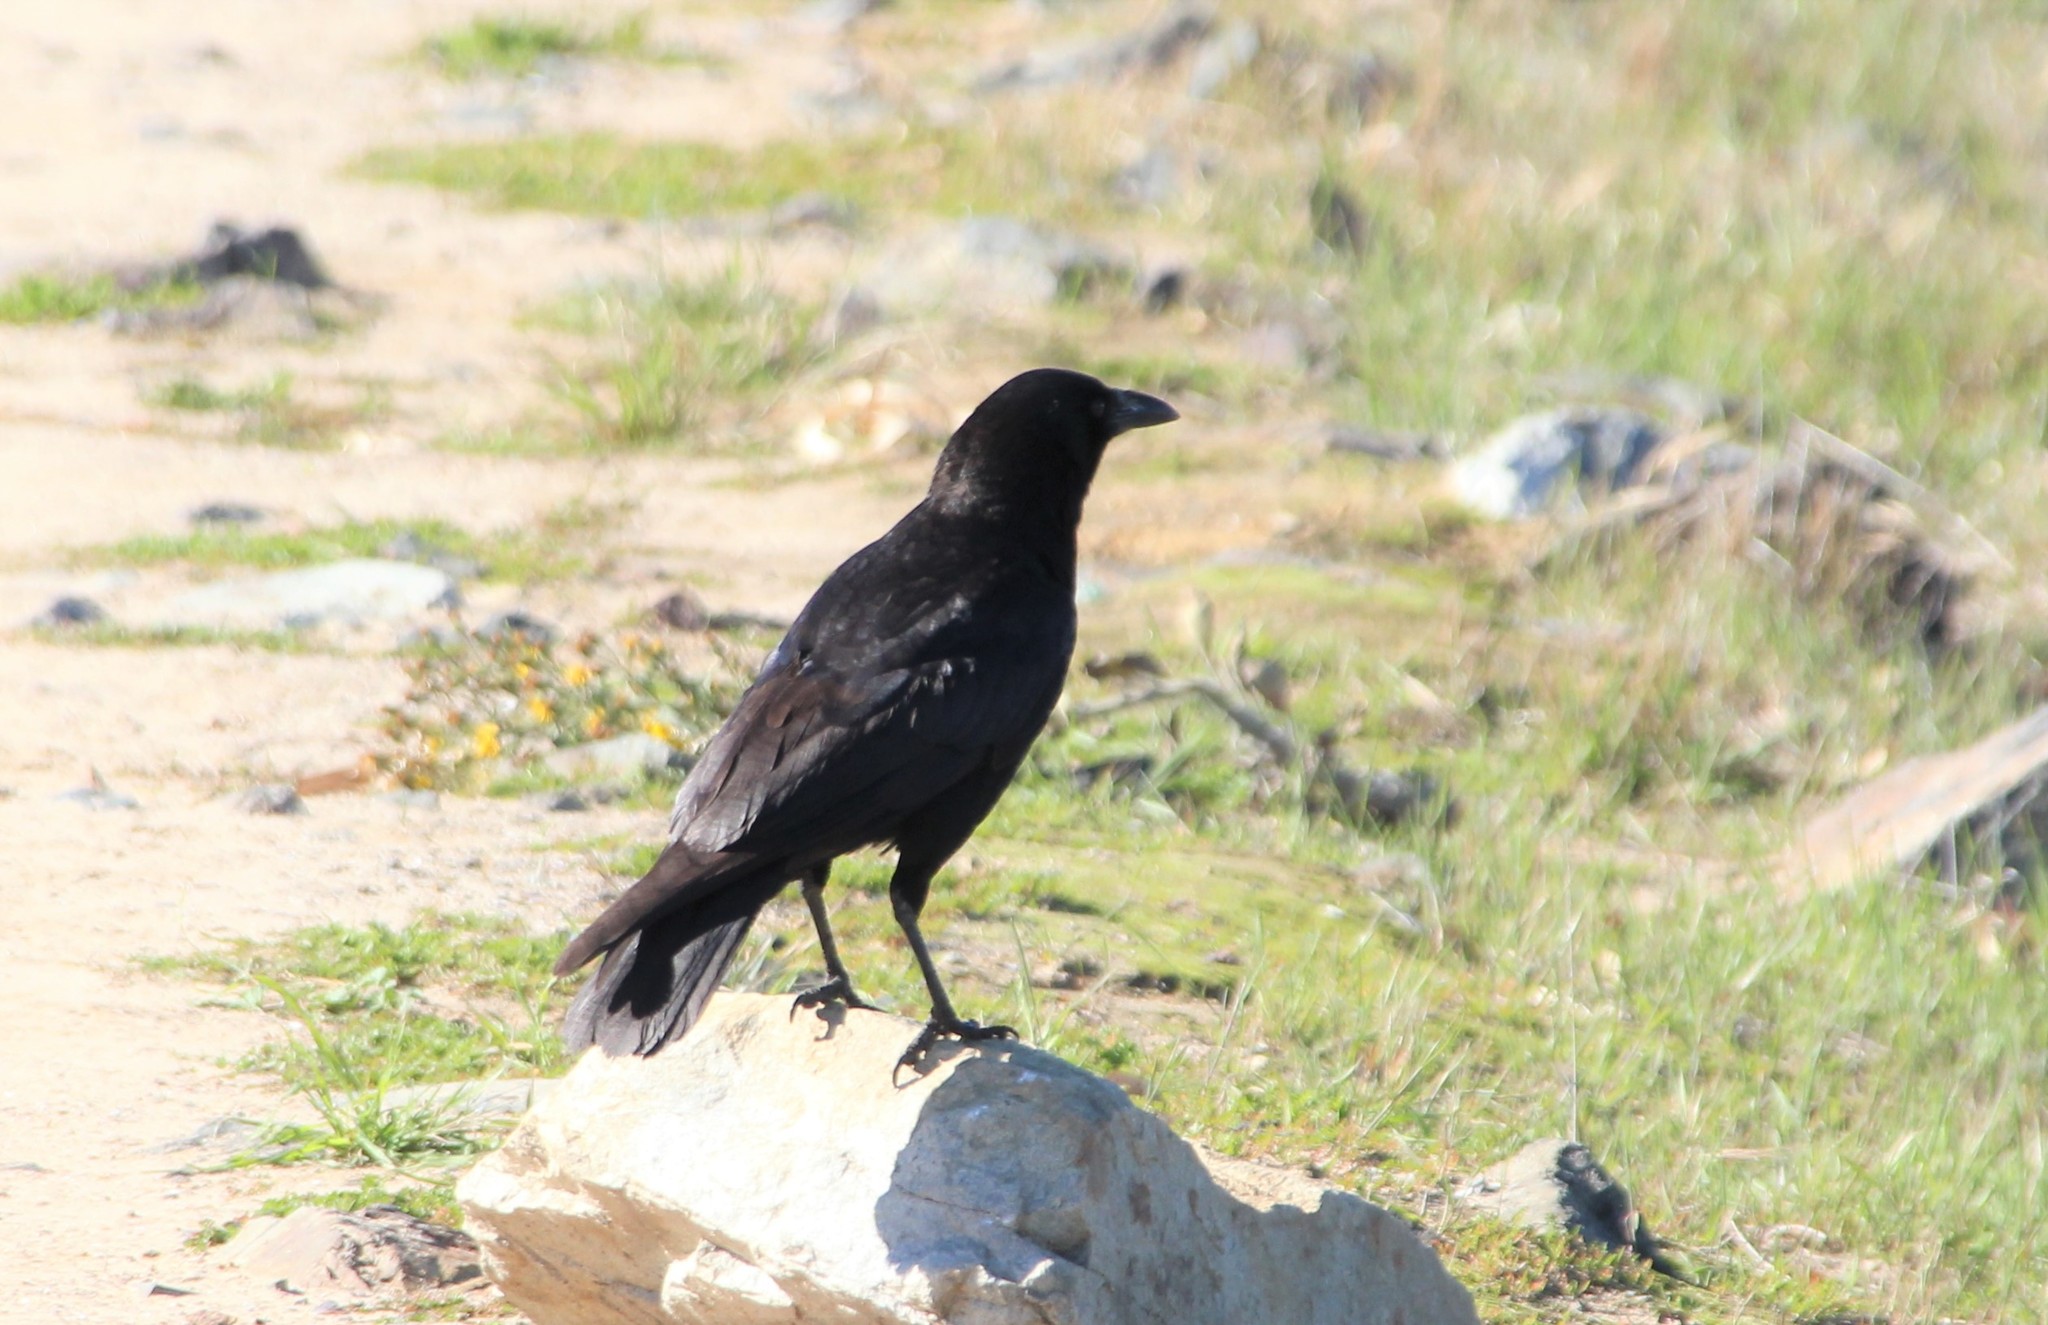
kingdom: Animalia
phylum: Chordata
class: Aves
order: Passeriformes
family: Corvidae
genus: Corvus
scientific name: Corvus brachyrhynchos
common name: American crow
